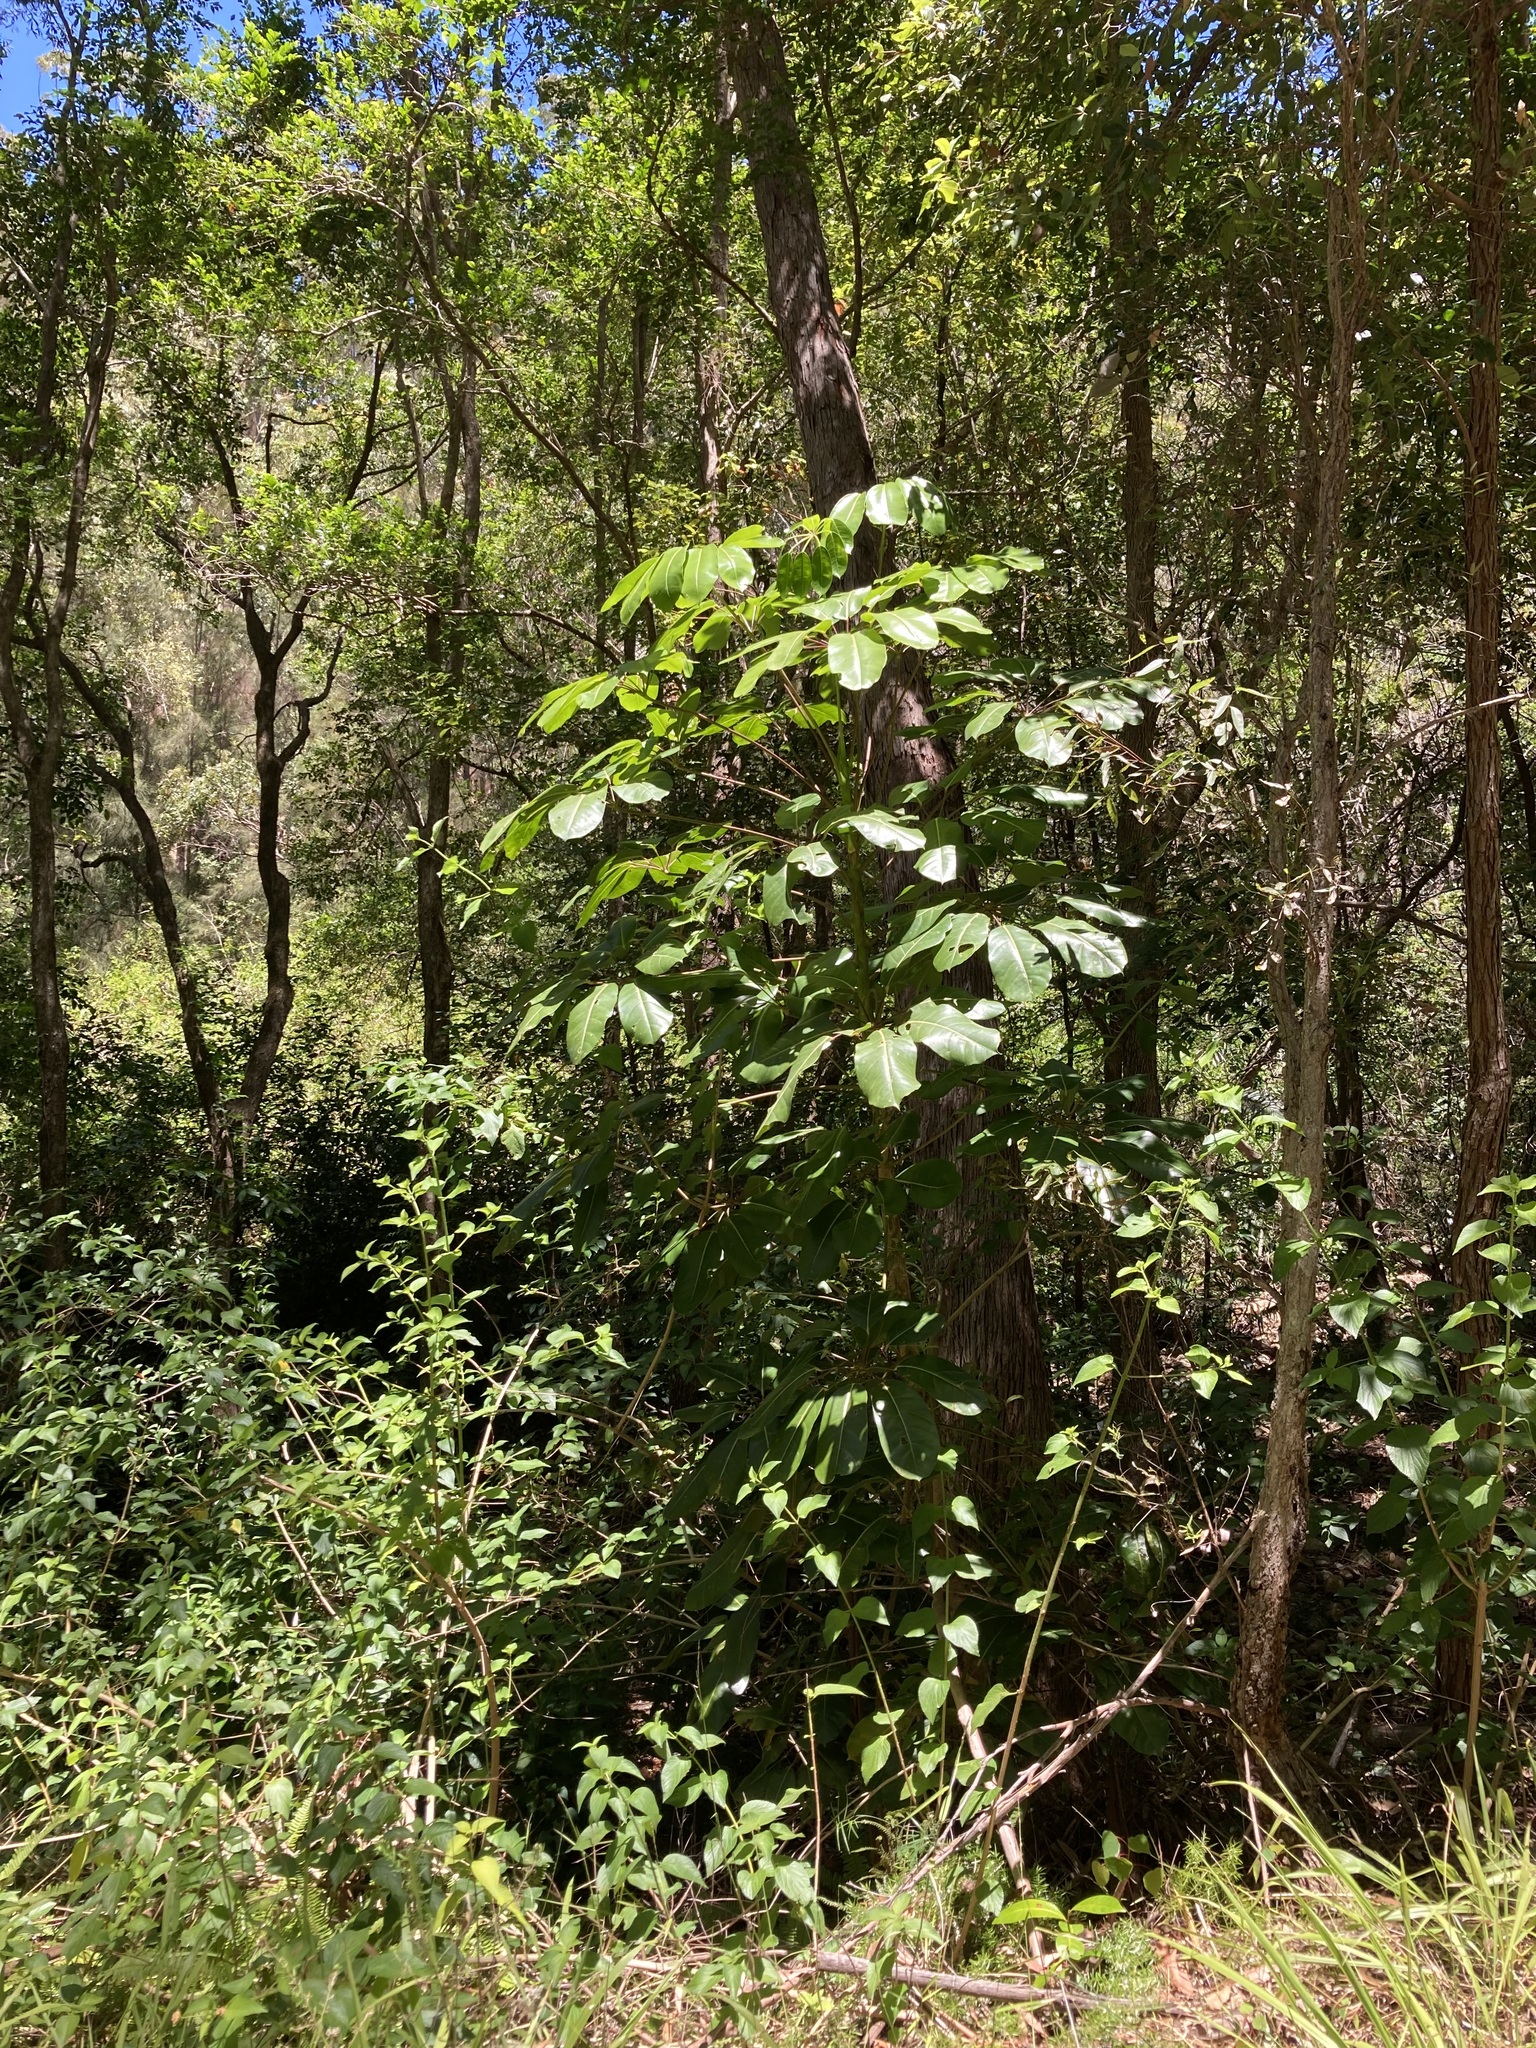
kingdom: Plantae
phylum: Tracheophyta
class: Magnoliopsida
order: Apiales
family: Araliaceae
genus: Heptapleurum
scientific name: Heptapleurum actinophyllum
